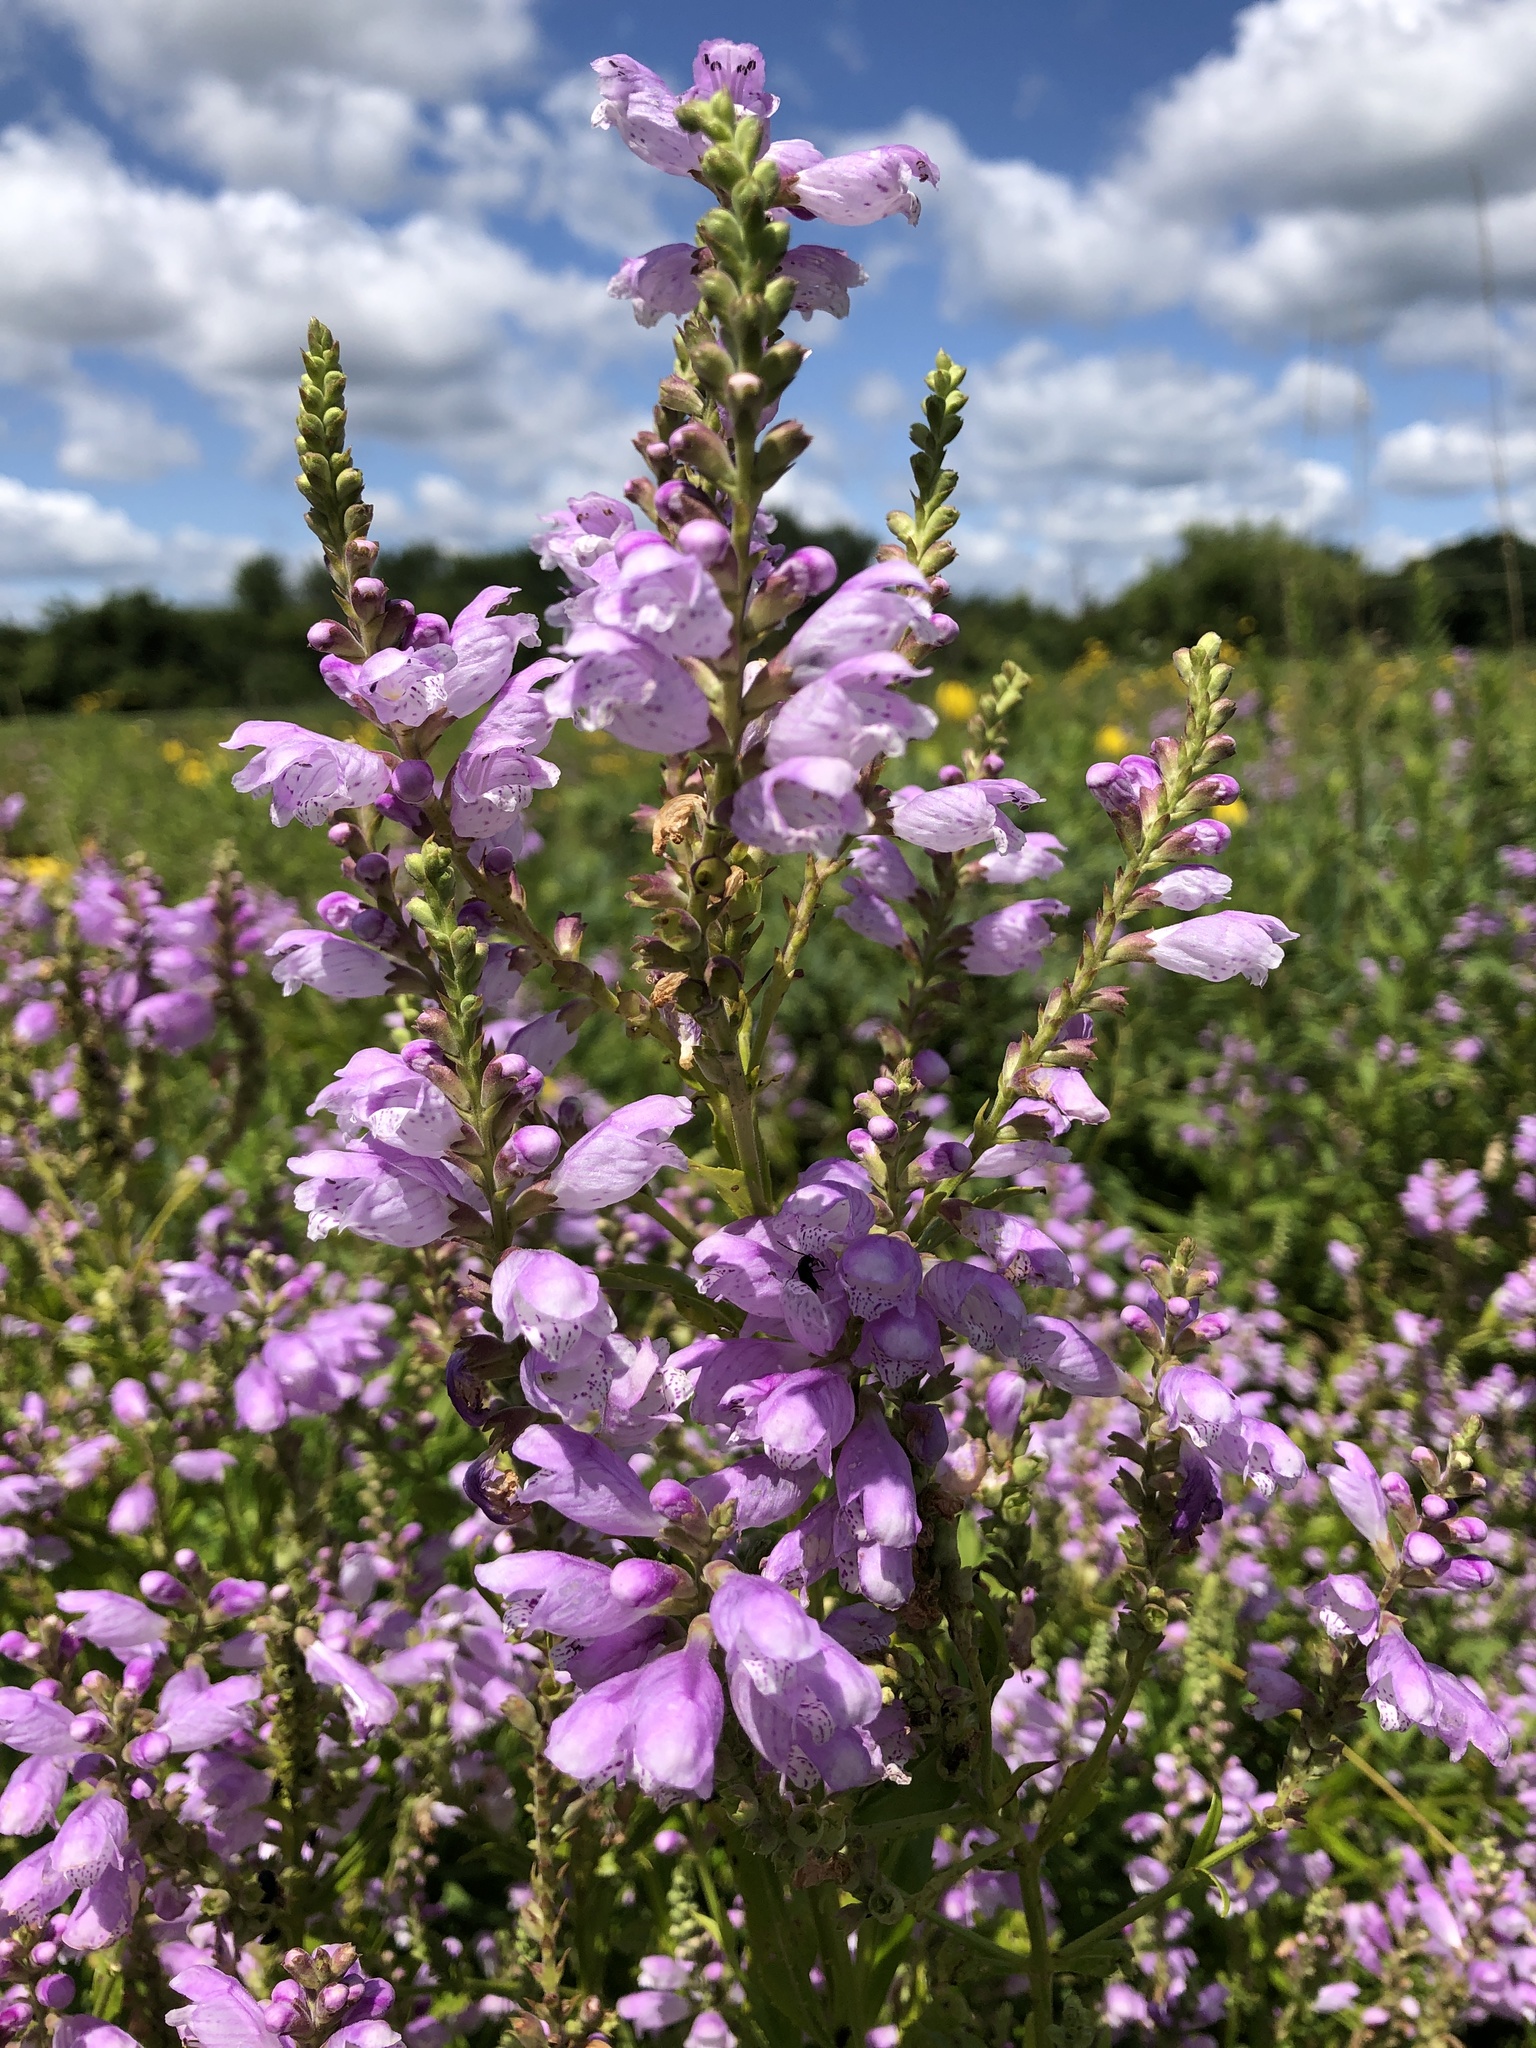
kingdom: Plantae
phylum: Tracheophyta
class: Magnoliopsida
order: Lamiales
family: Lamiaceae
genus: Physostegia
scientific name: Physostegia virginiana
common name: Obedient-plant
